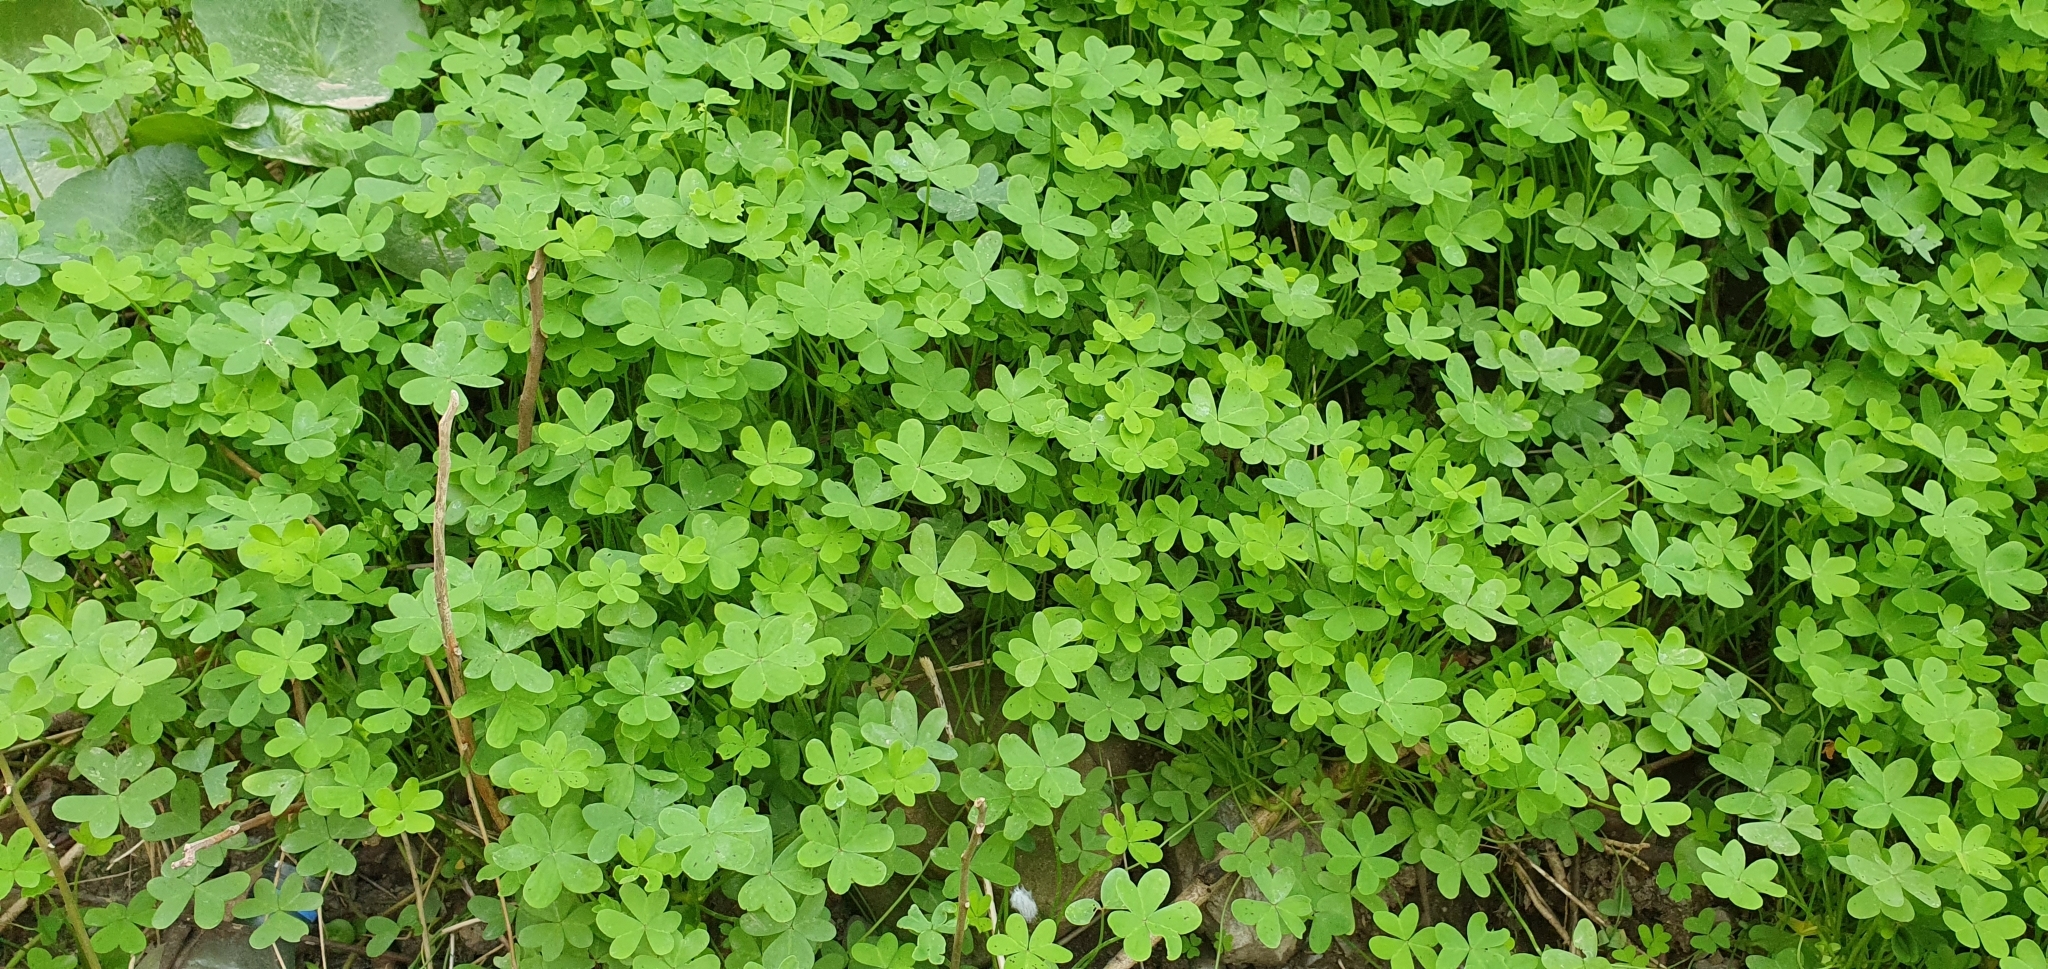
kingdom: Plantae
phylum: Tracheophyta
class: Magnoliopsida
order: Oxalidales
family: Oxalidaceae
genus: Oxalis
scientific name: Oxalis pes-caprae
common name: Bermuda-buttercup
